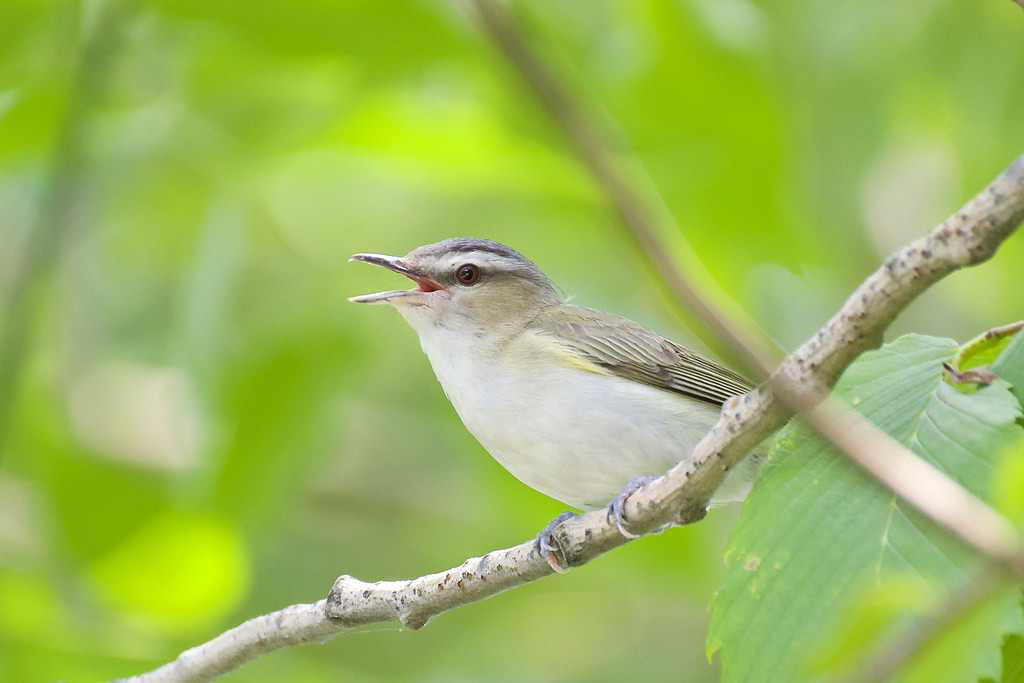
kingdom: Animalia
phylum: Chordata
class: Aves
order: Passeriformes
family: Vireonidae
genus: Vireo
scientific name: Vireo olivaceus
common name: Red-eyed vireo
